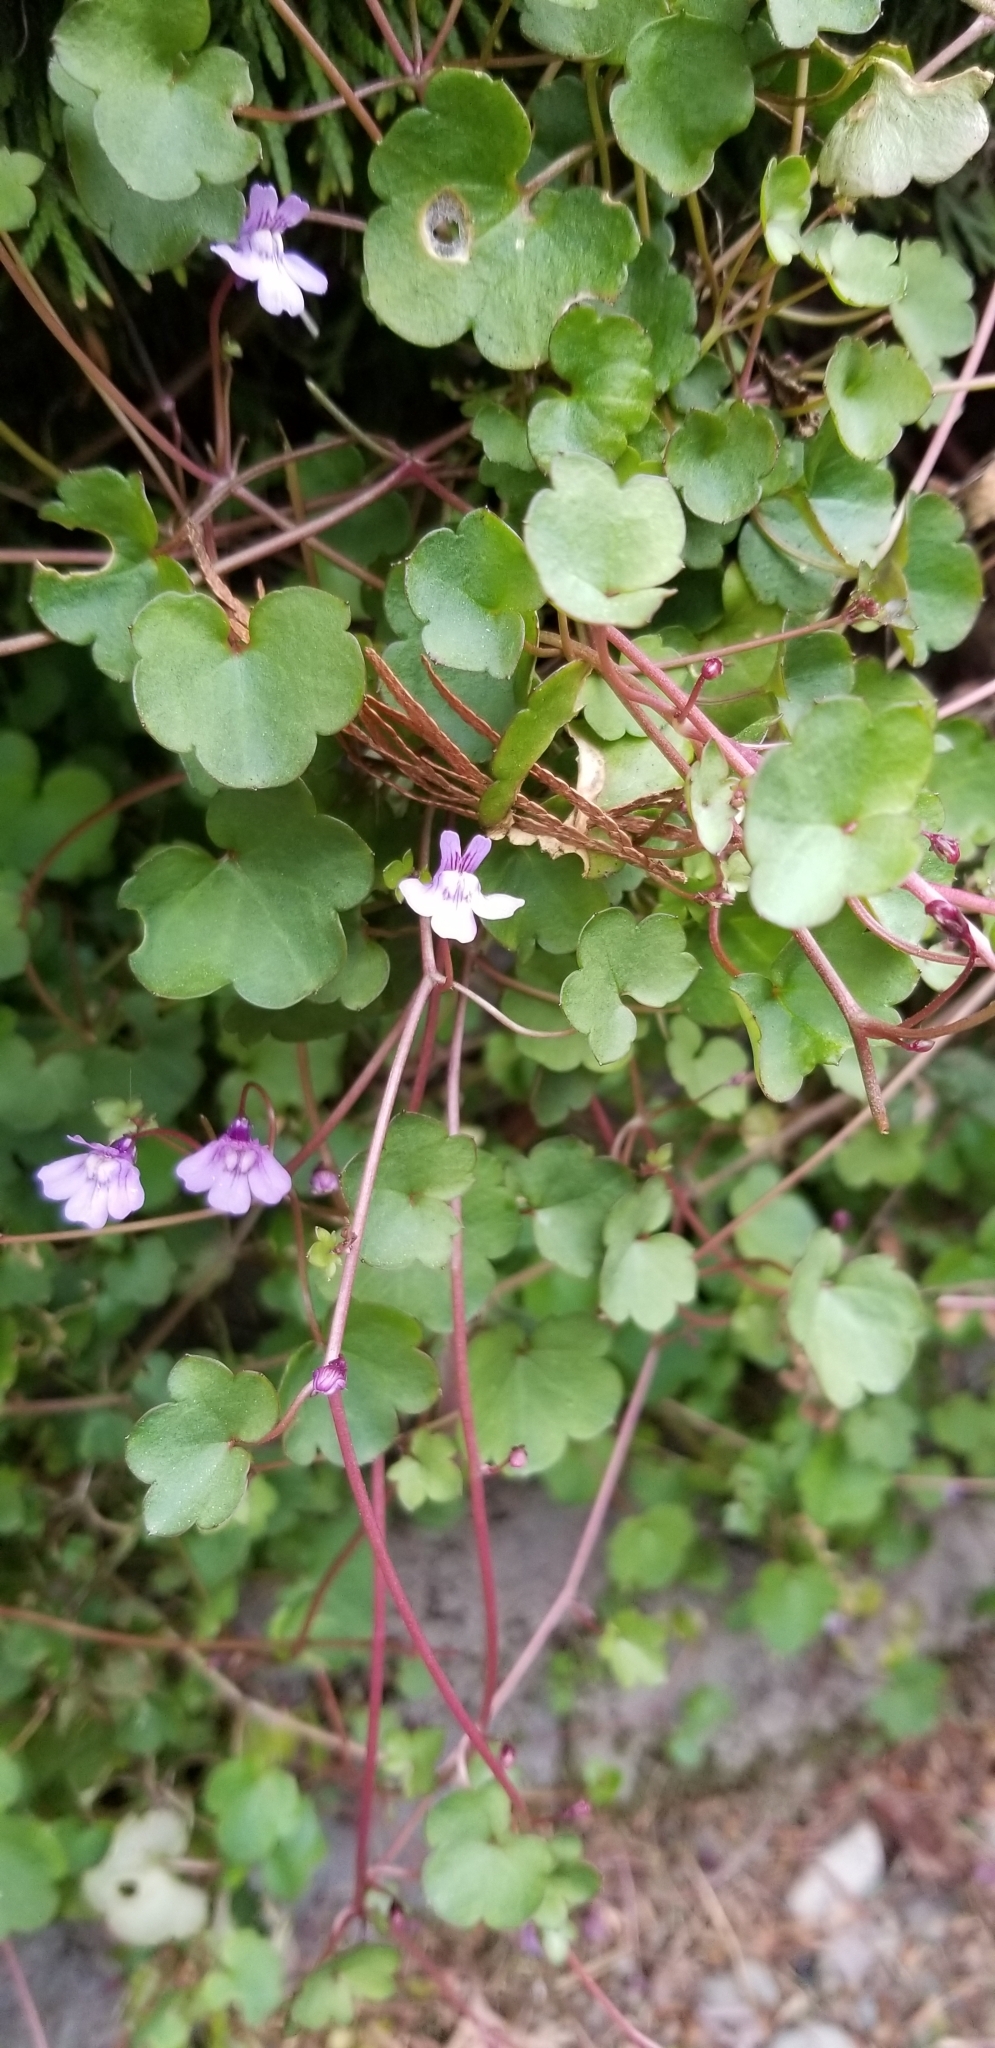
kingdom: Plantae
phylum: Tracheophyta
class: Magnoliopsida
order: Lamiales
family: Plantaginaceae
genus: Cymbalaria
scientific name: Cymbalaria muralis
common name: Ivy-leaved toadflax
